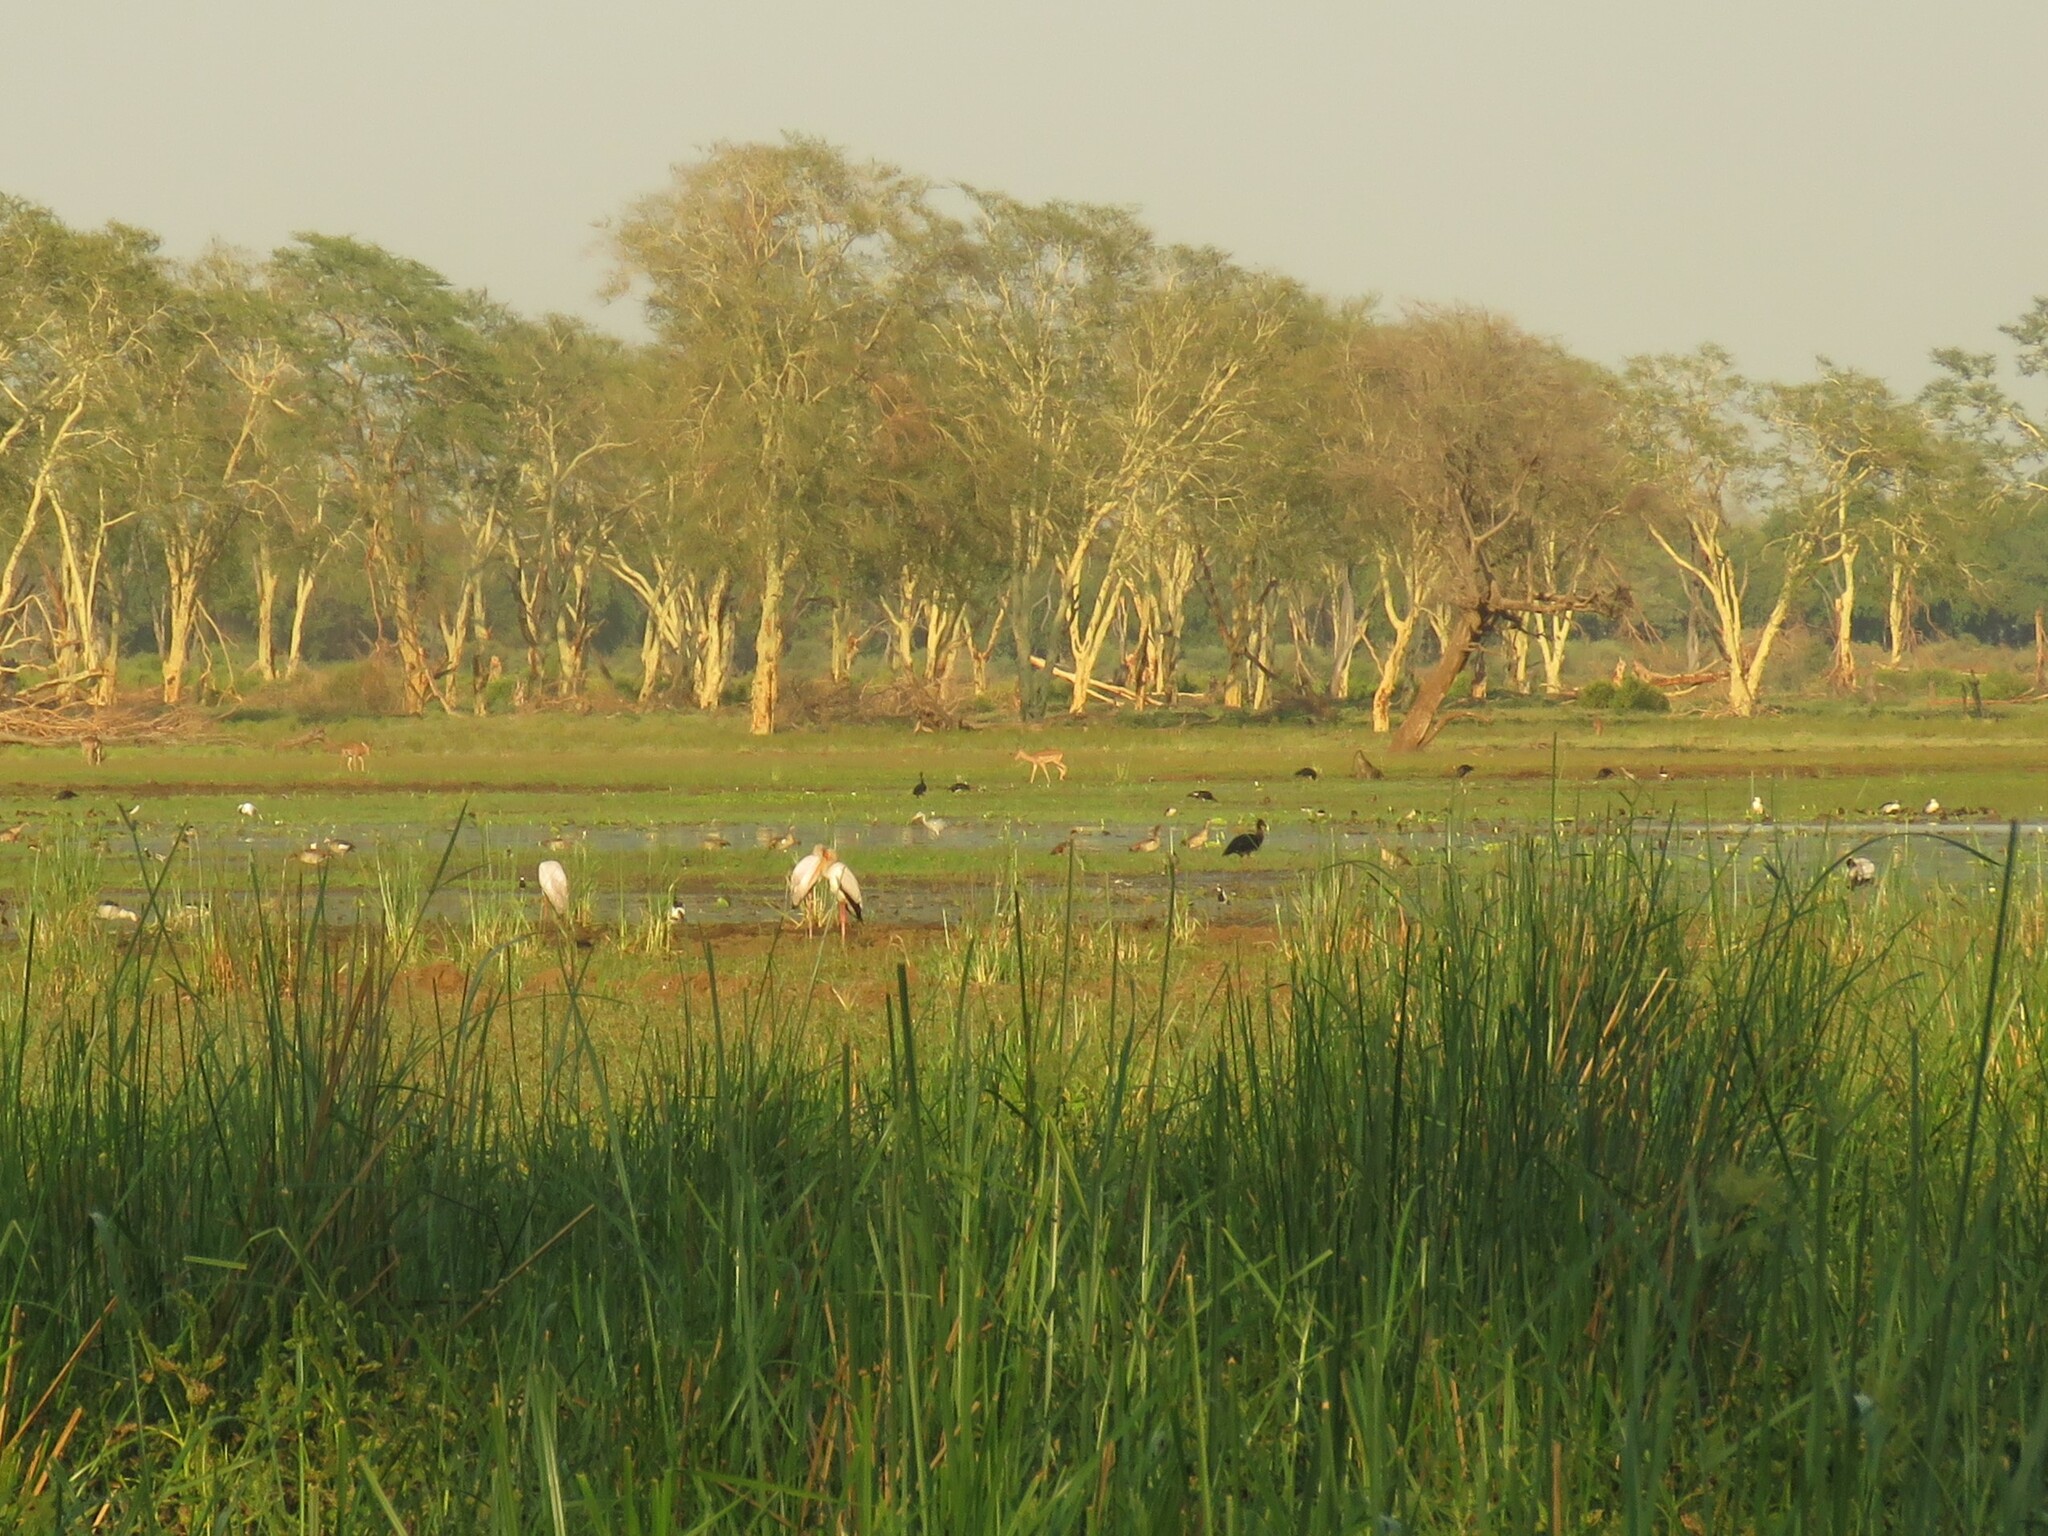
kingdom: Animalia
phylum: Chordata
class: Mammalia
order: Artiodactyla
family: Bovidae
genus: Aepyceros
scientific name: Aepyceros melampus
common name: Impala
